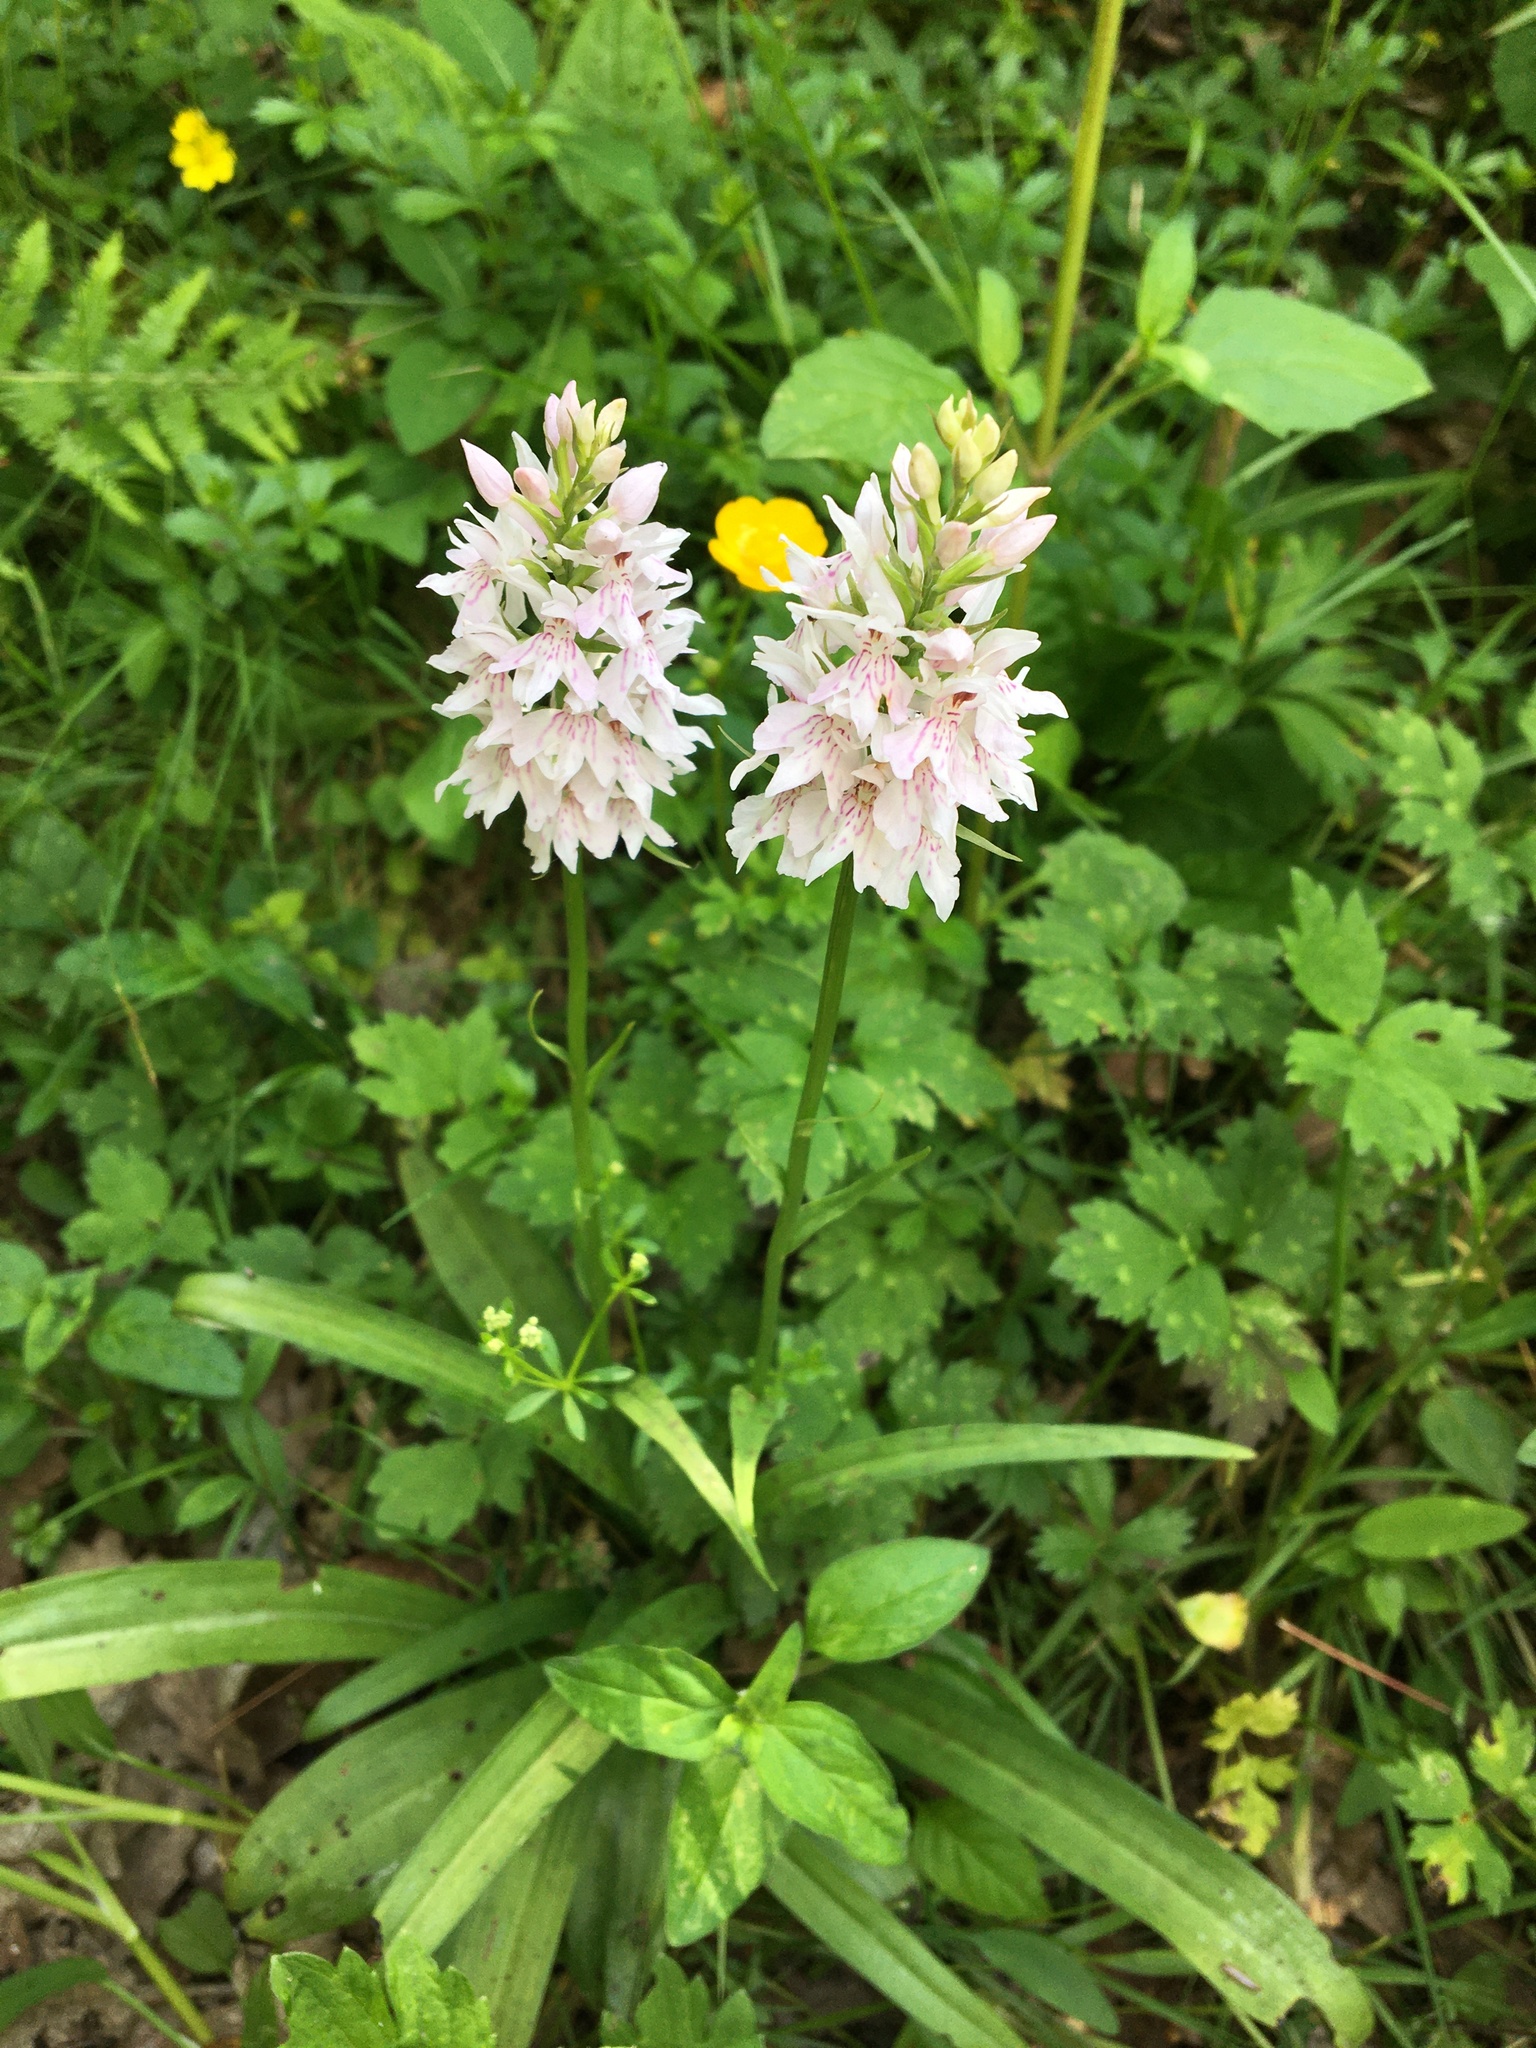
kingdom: Plantae
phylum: Tracheophyta
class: Liliopsida
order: Asparagales
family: Orchidaceae
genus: Dactylorhiza
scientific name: Dactylorhiza maculata
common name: Heath spotted-orchid
